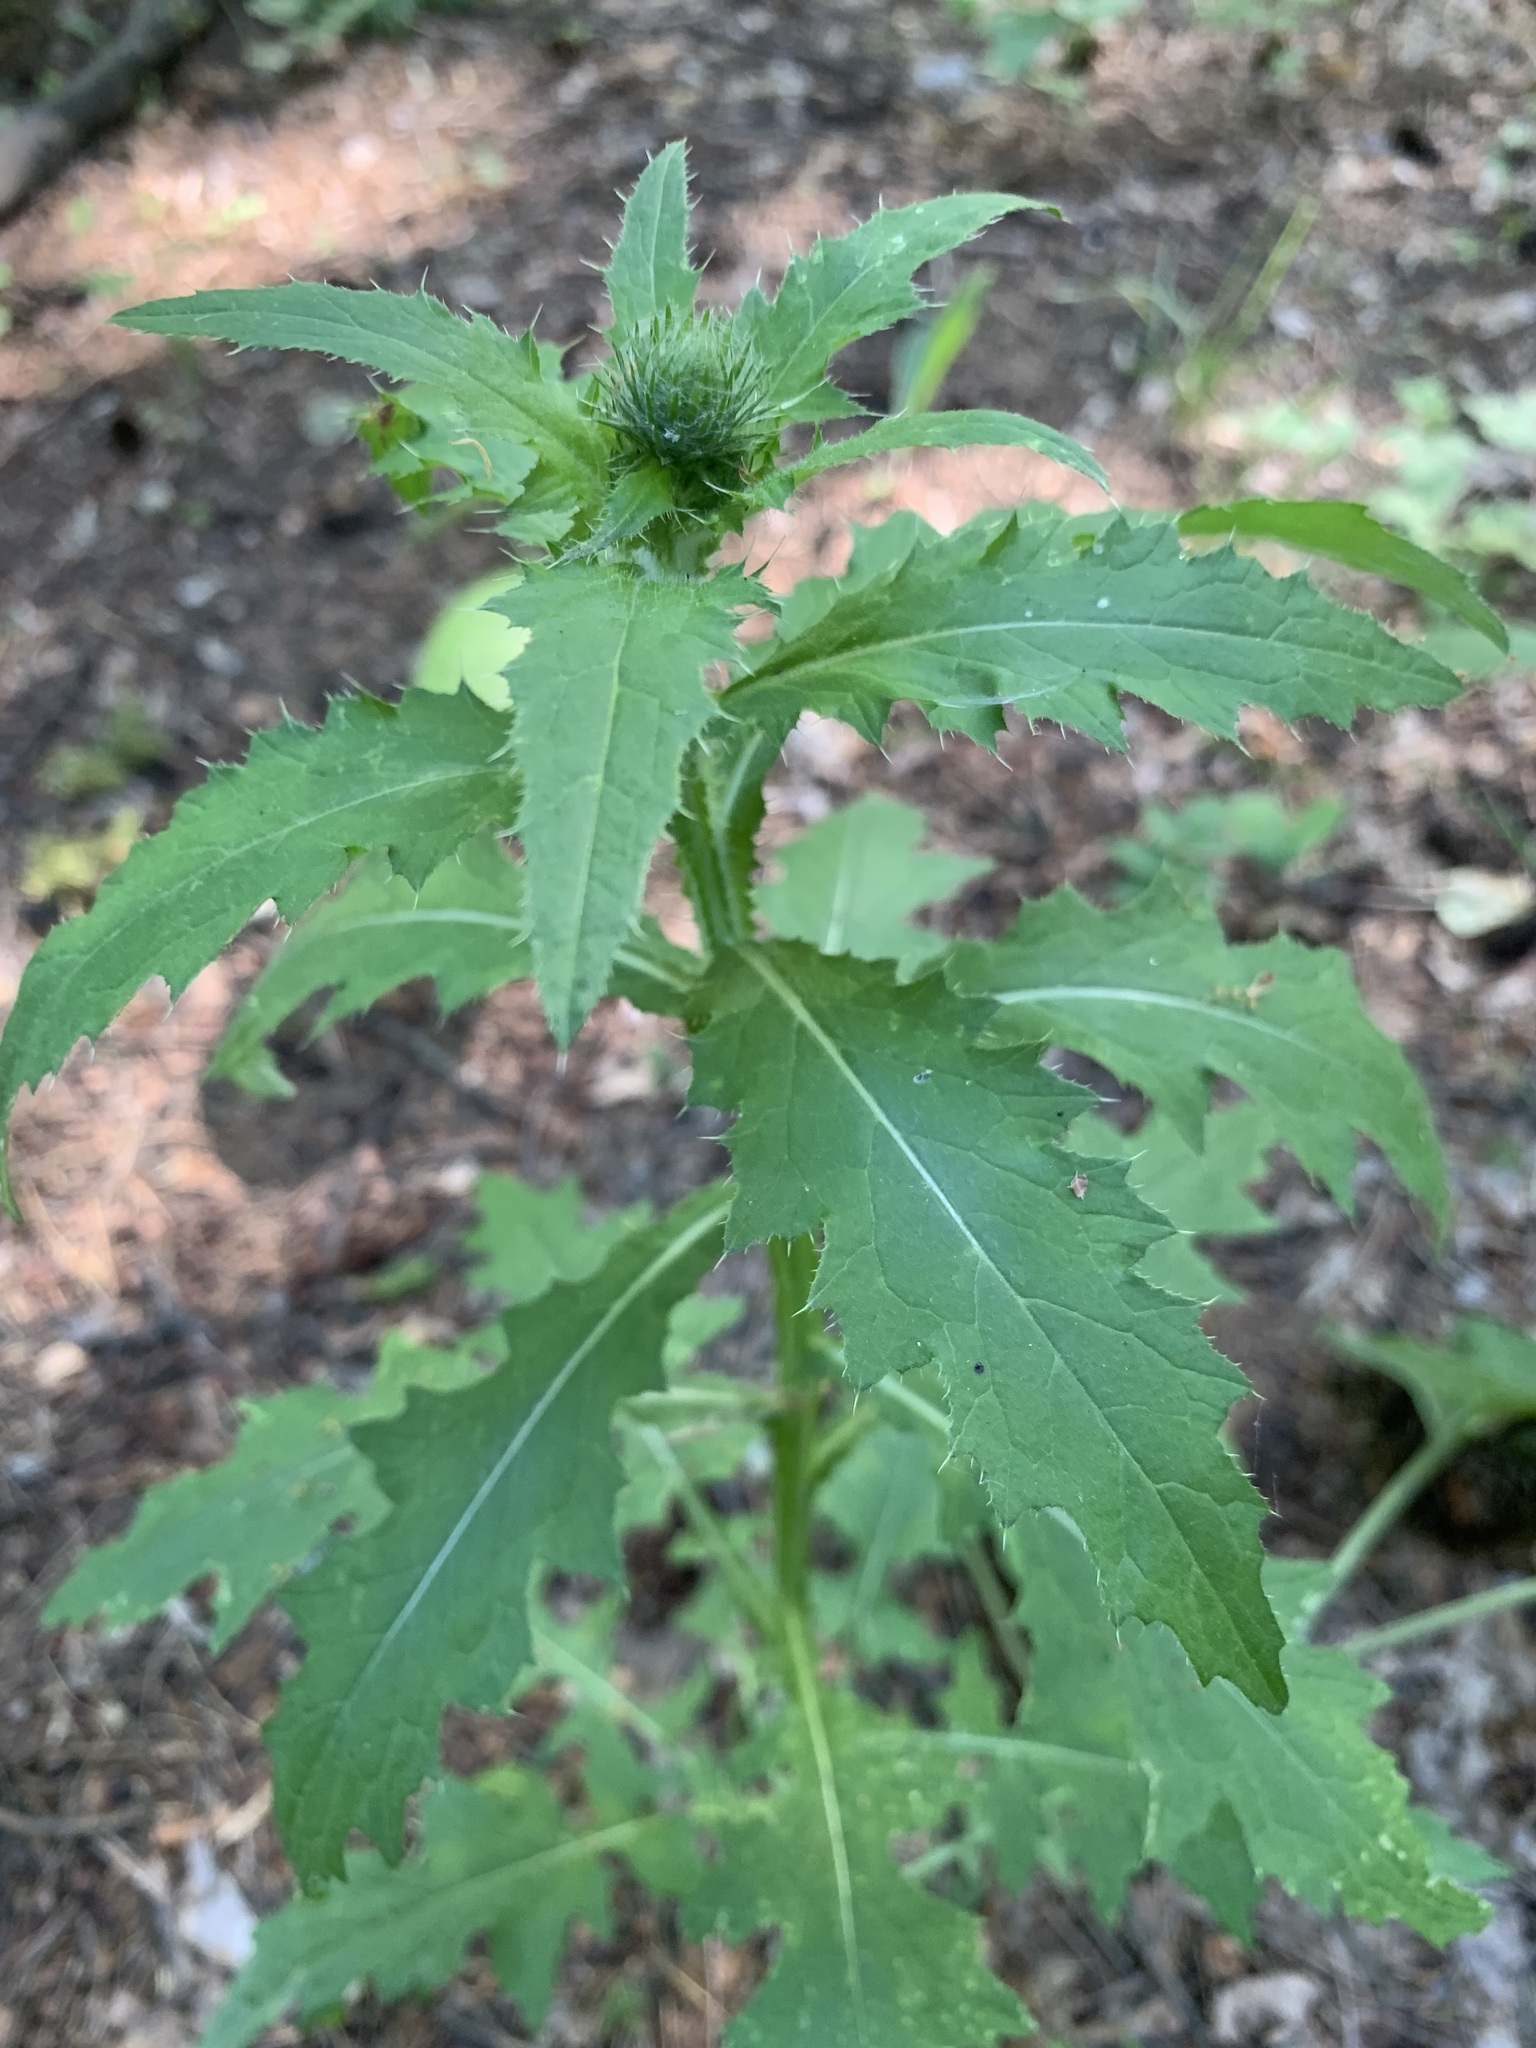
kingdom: Plantae
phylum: Tracheophyta
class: Magnoliopsida
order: Asterales
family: Asteraceae
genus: Carduus
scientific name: Carduus crispus
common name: Welted thistle
